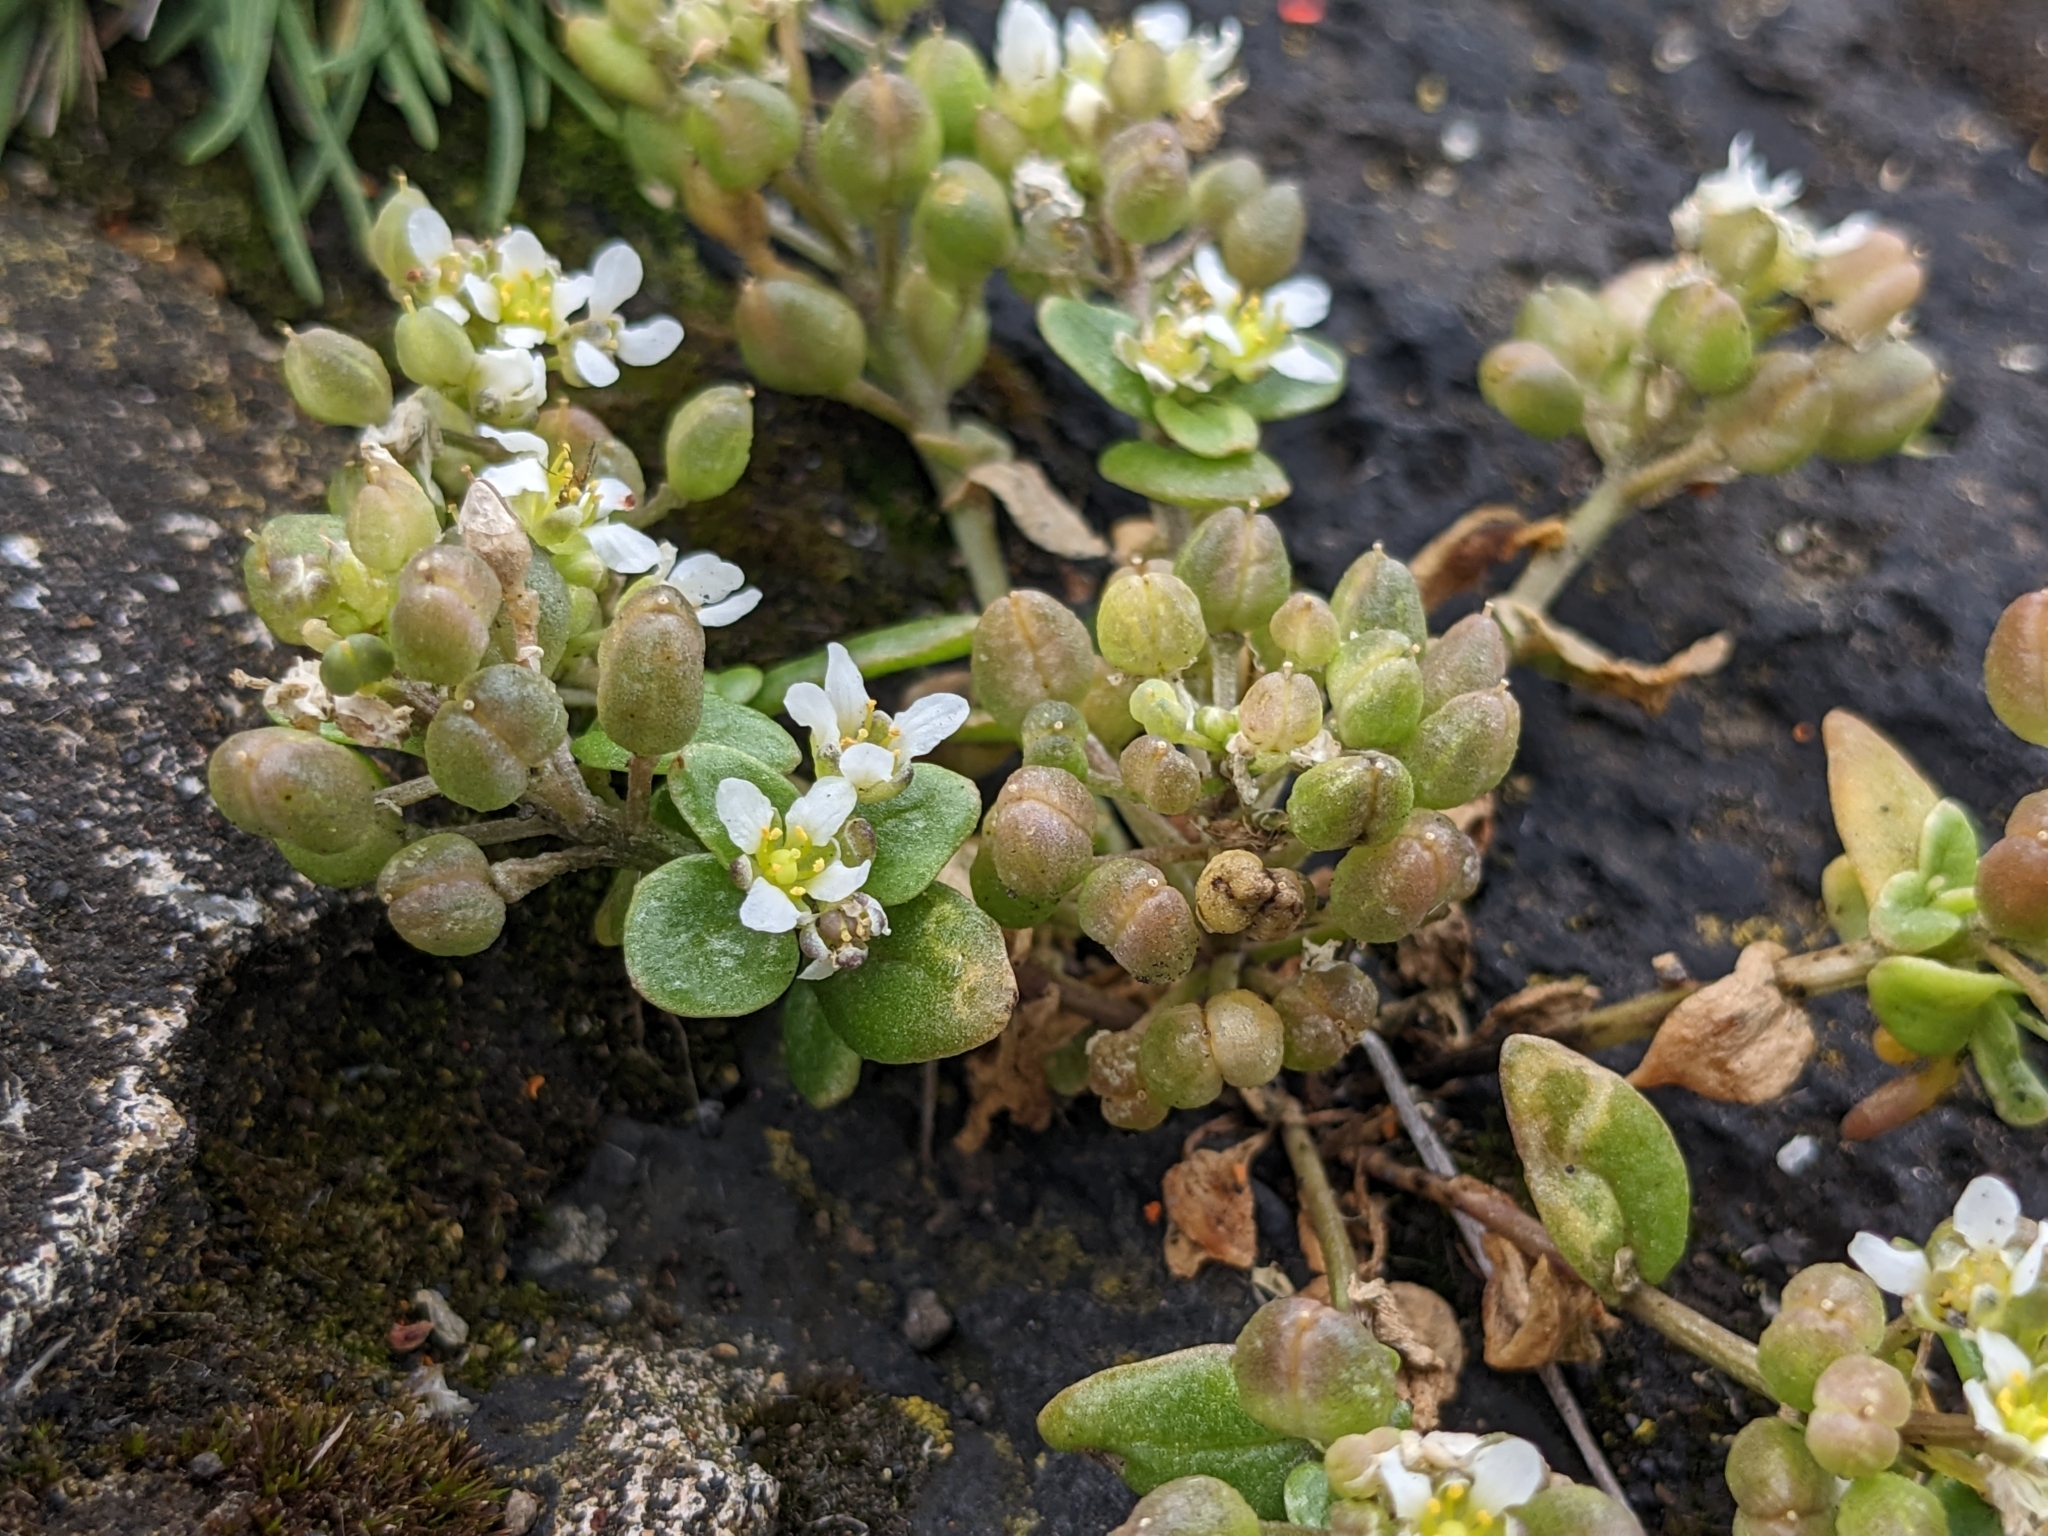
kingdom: Plantae
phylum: Tracheophyta
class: Magnoliopsida
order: Brassicales
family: Brassicaceae
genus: Cochlearia
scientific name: Cochlearia officinalis
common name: Scurvy-grass
